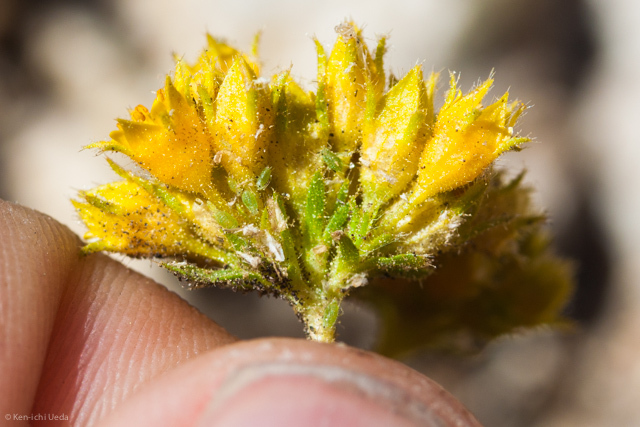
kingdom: Plantae
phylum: Tracheophyta
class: Magnoliopsida
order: Rosales
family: Rosaceae
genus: Potentilla
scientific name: Potentilla gordonii
